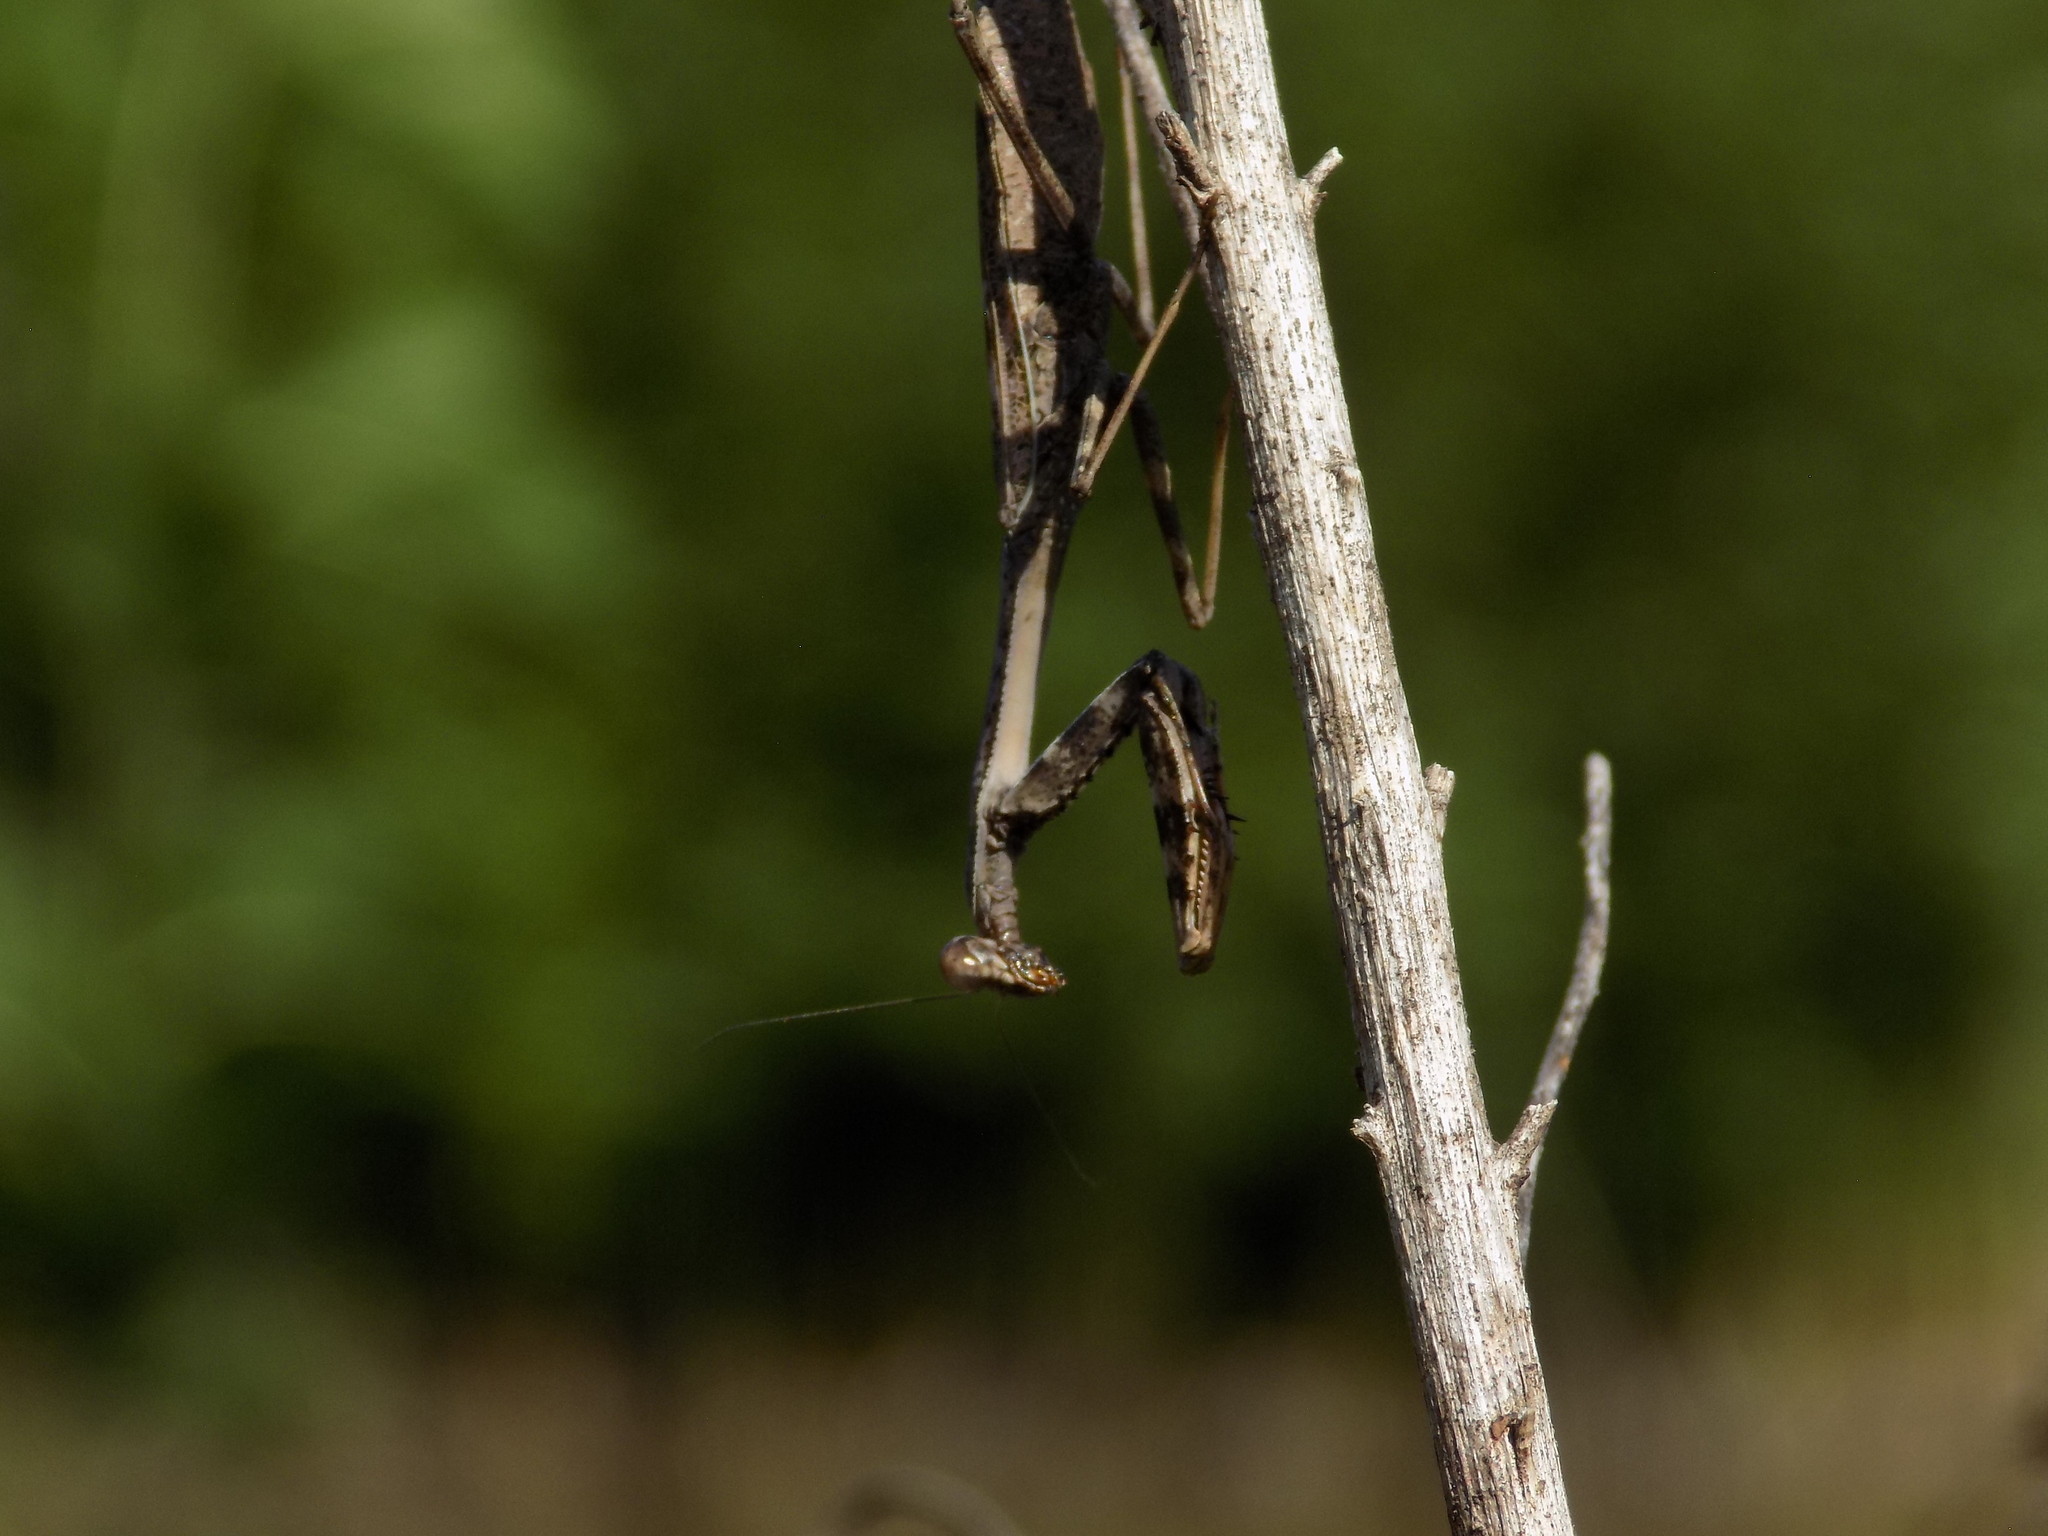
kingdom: Animalia
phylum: Arthropoda
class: Insecta
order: Mantodea
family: Mantidae
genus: Stagmomantis
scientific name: Stagmomantis carolina
